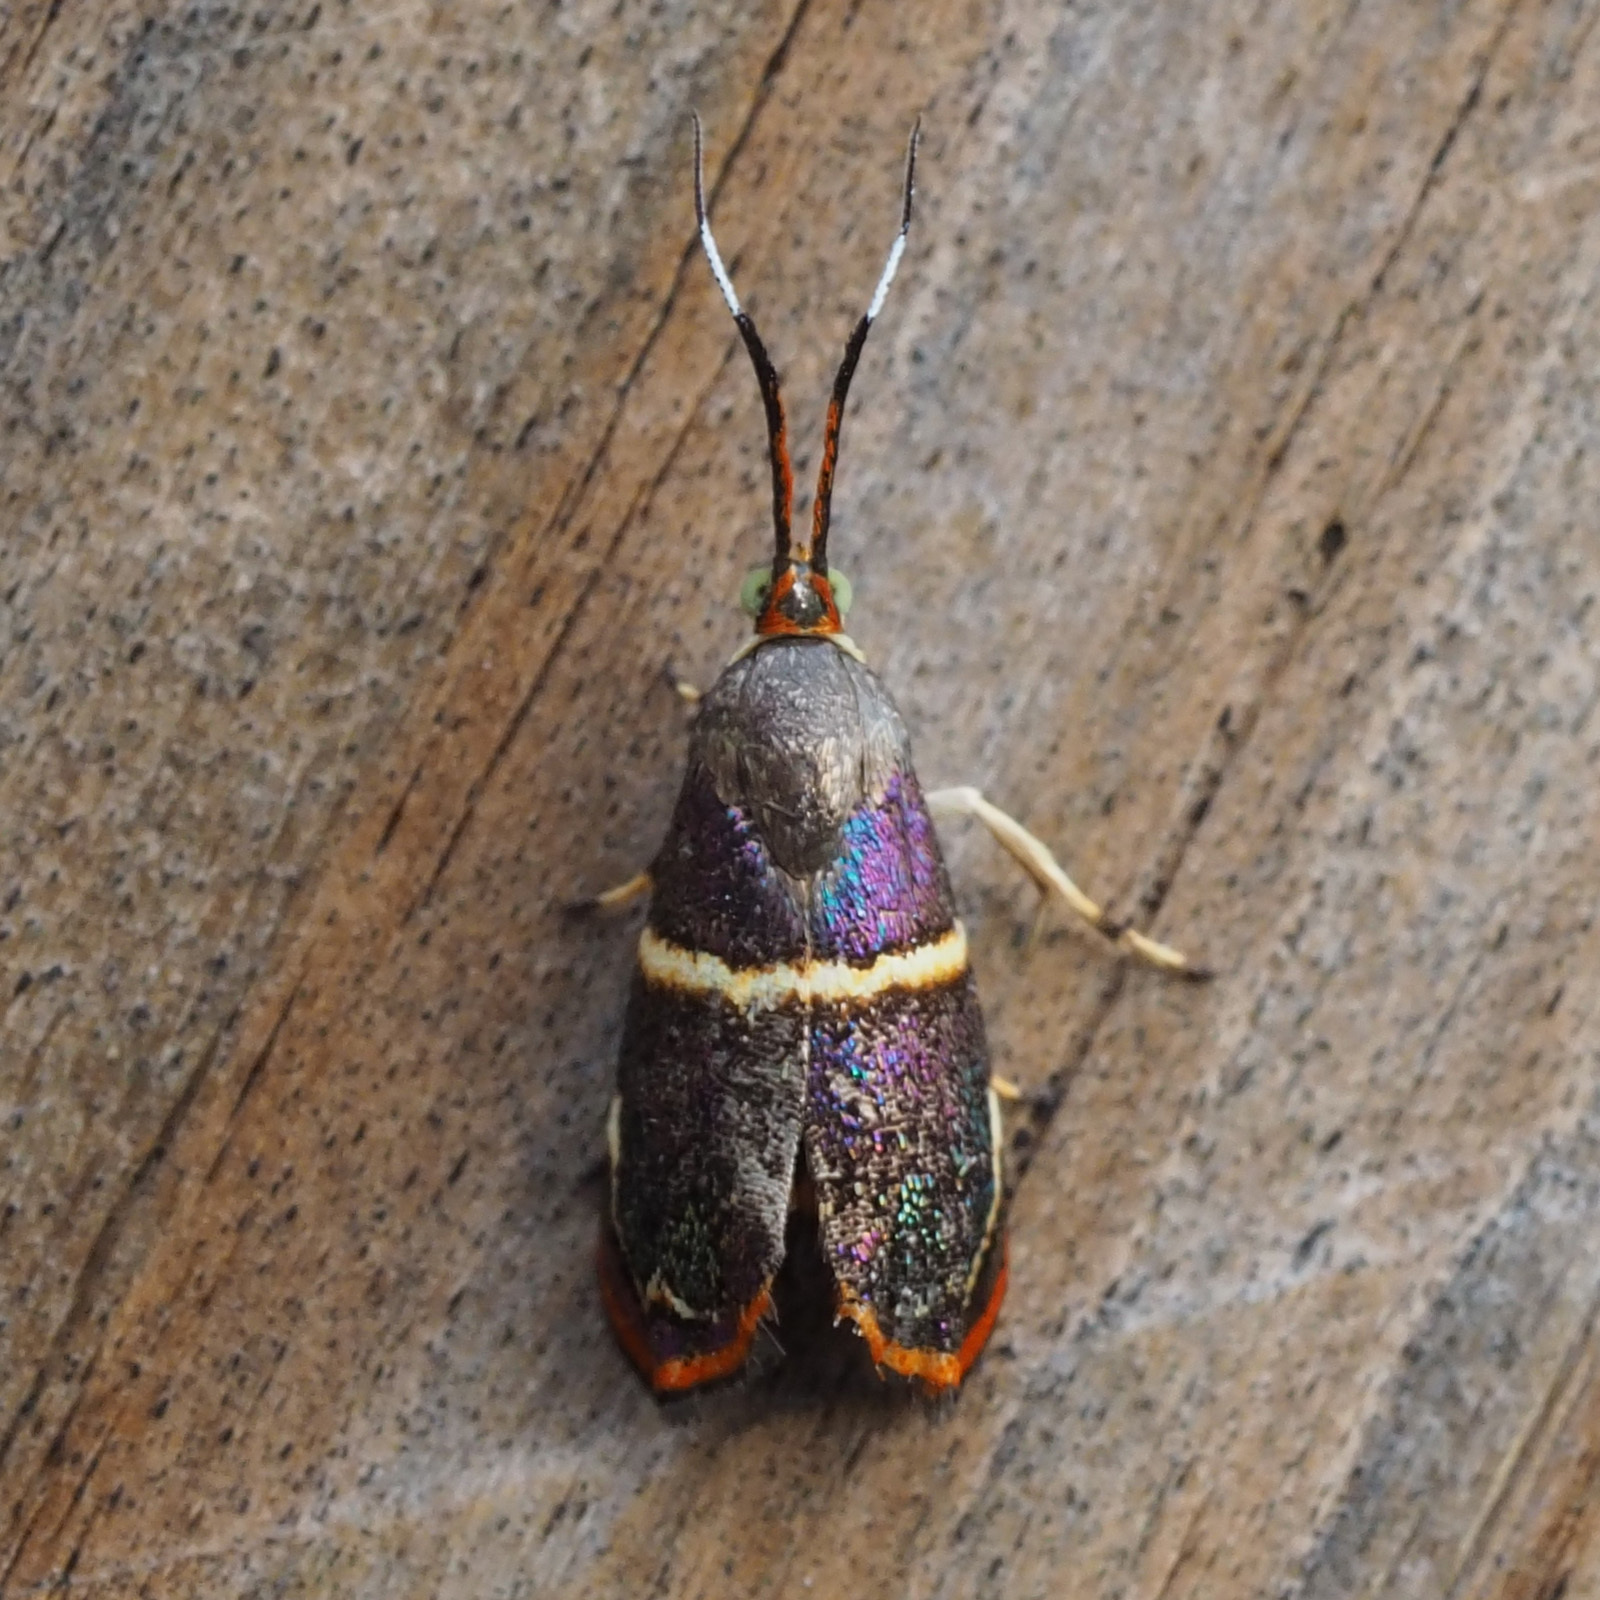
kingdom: Animalia
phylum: Arthropoda
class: Insecta
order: Lepidoptera
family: Choreutidae
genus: Hemerophila
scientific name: Hemerophila
